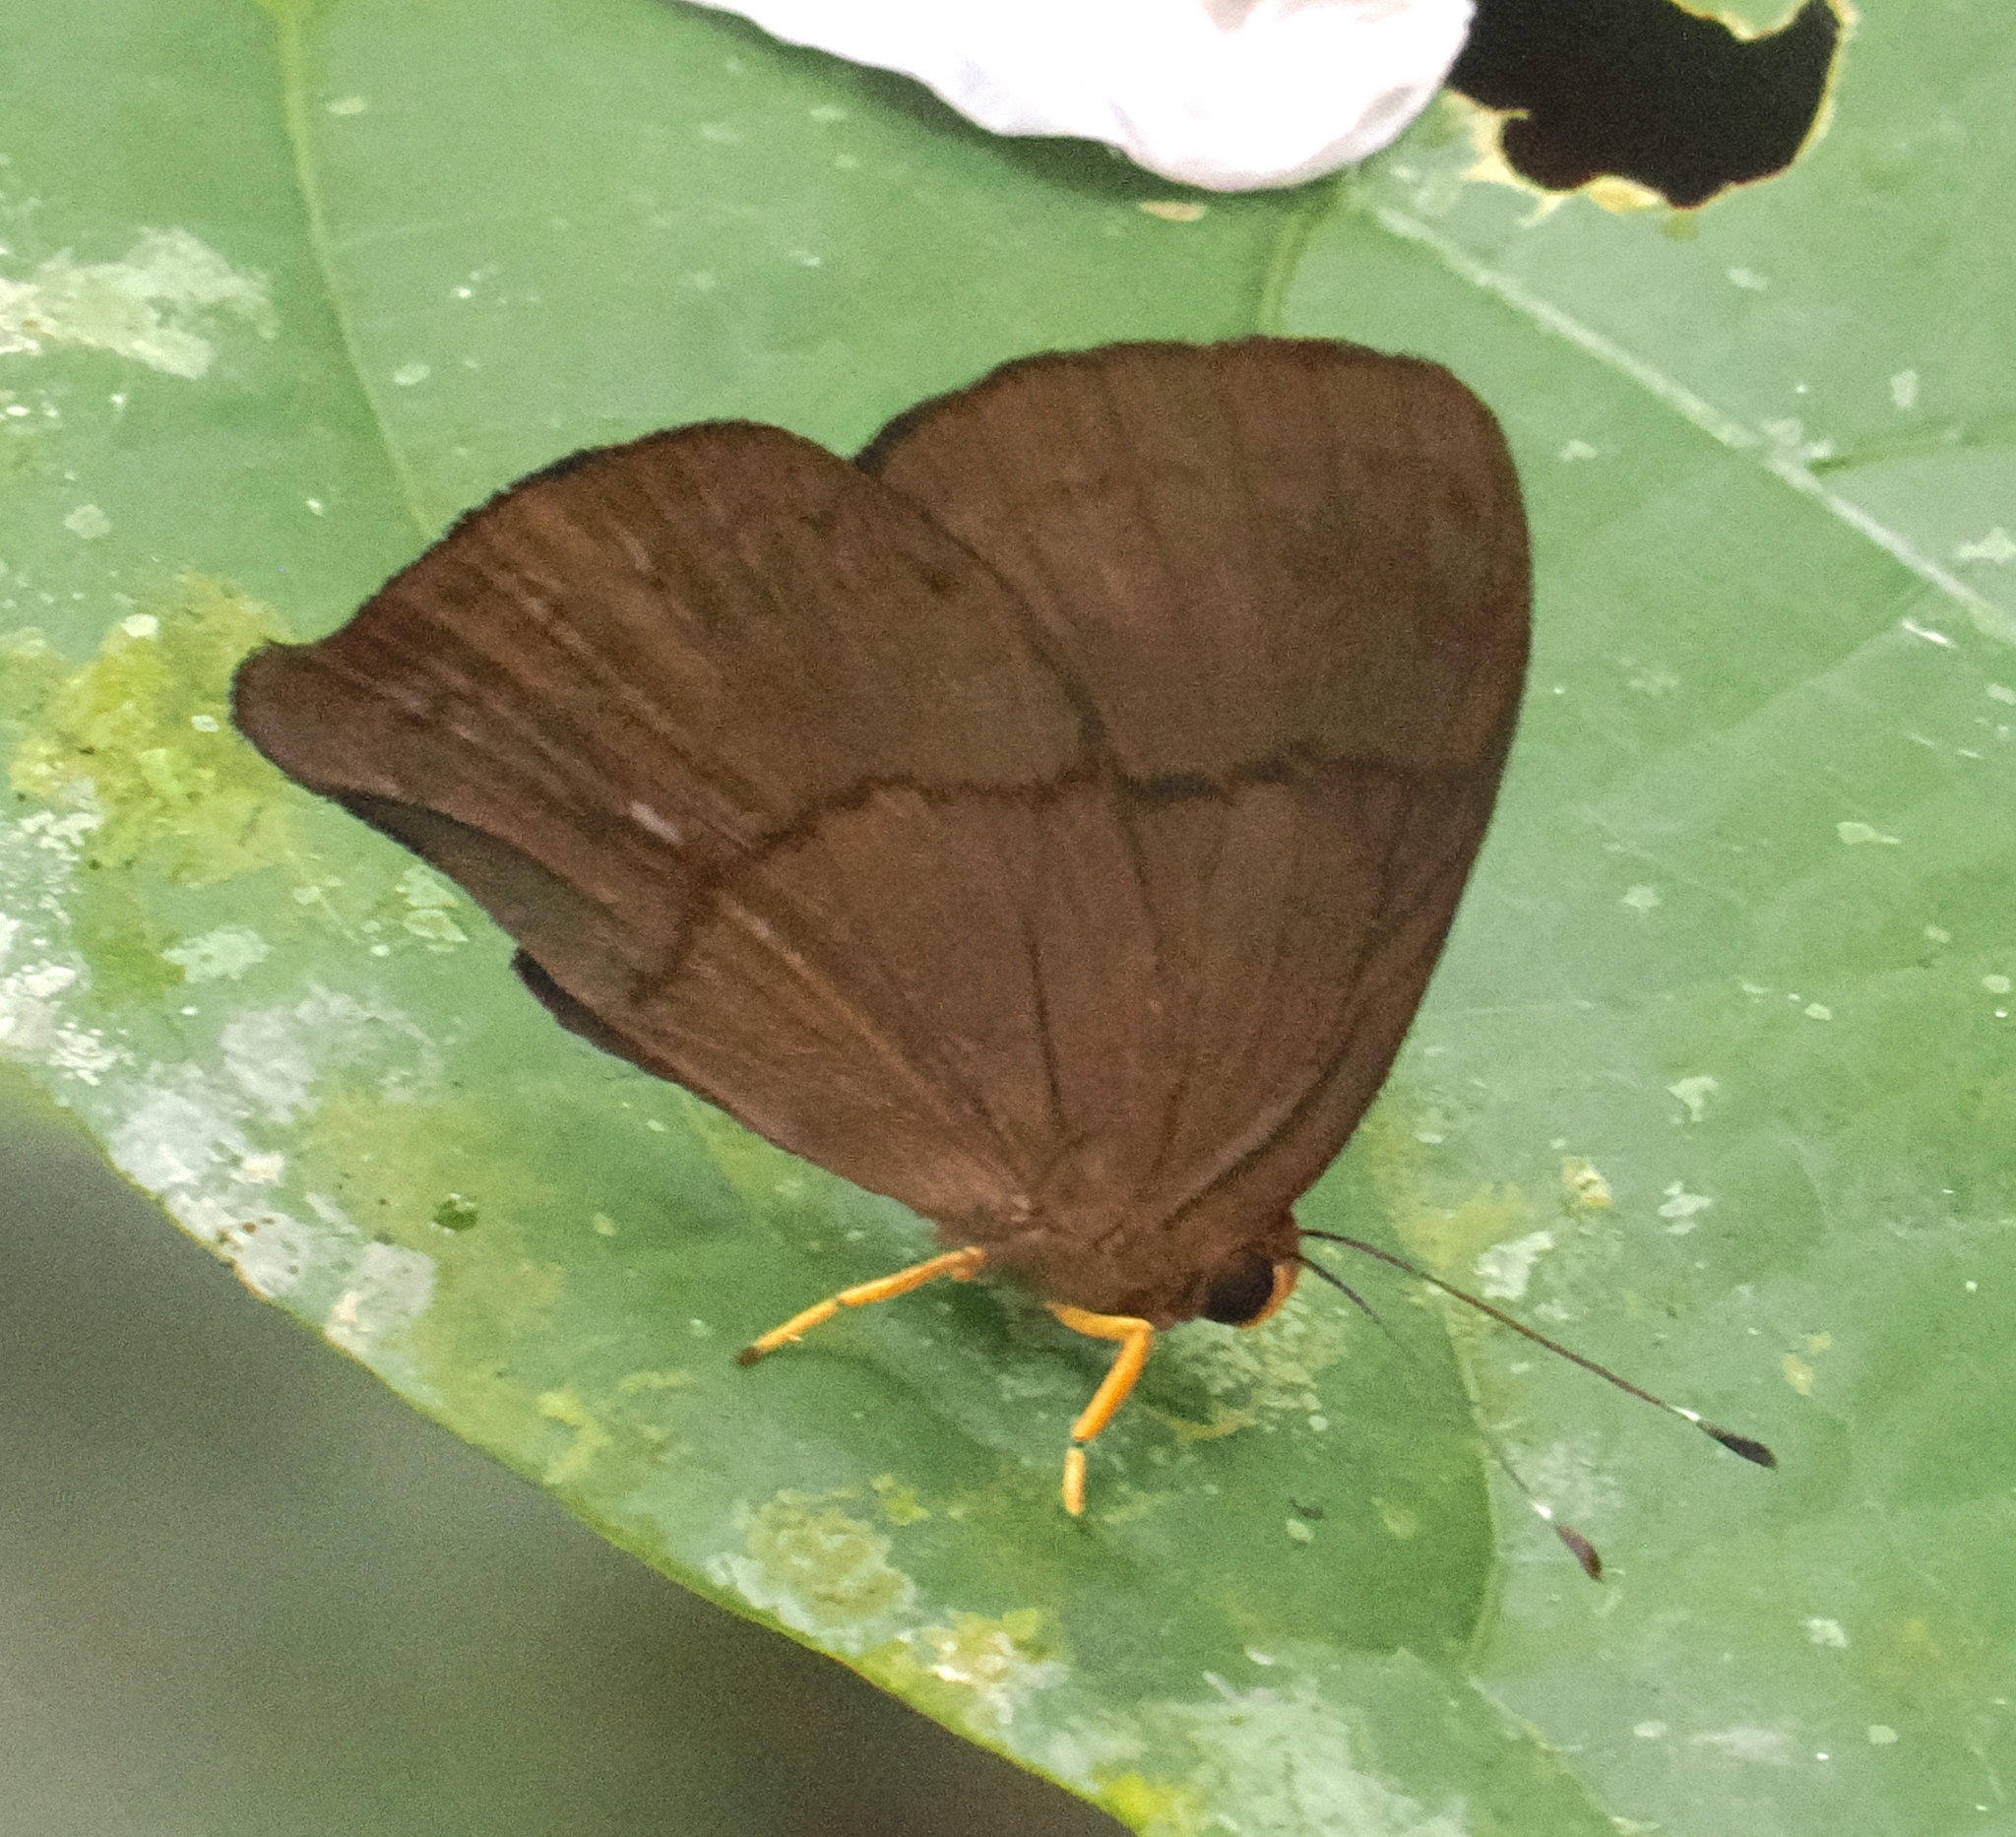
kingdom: Animalia
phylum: Arthropoda
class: Insecta
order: Lepidoptera
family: Riodinidae
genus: Eugelasia
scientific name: Eugelasia
